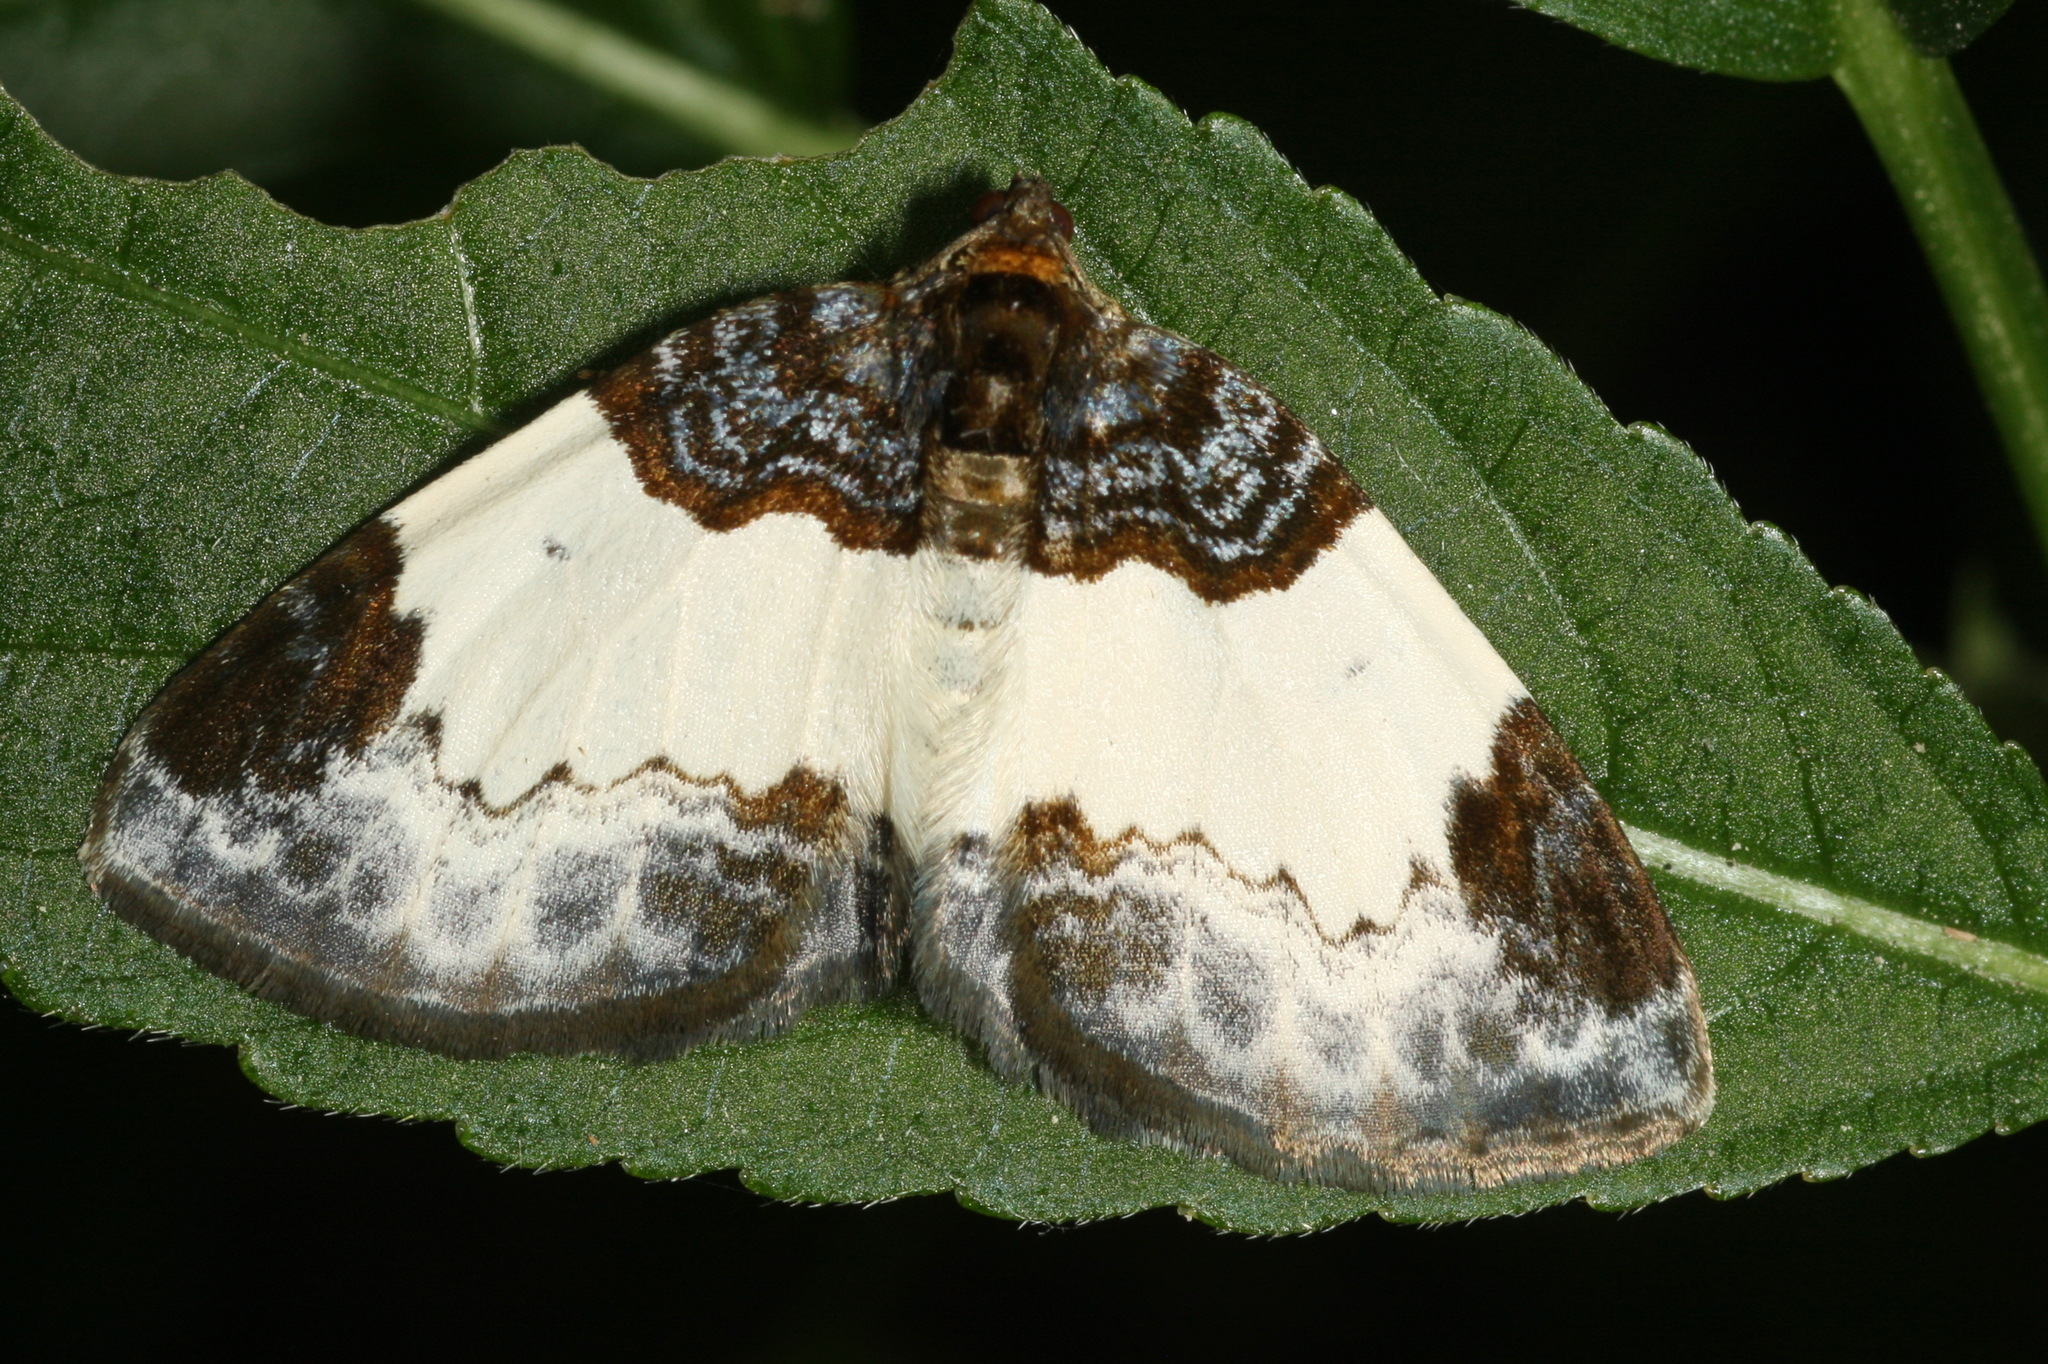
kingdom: Animalia
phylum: Arthropoda
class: Insecta
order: Lepidoptera
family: Geometridae
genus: Mesoleuca
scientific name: Mesoleuca albicillata
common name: Beautiful carpet
